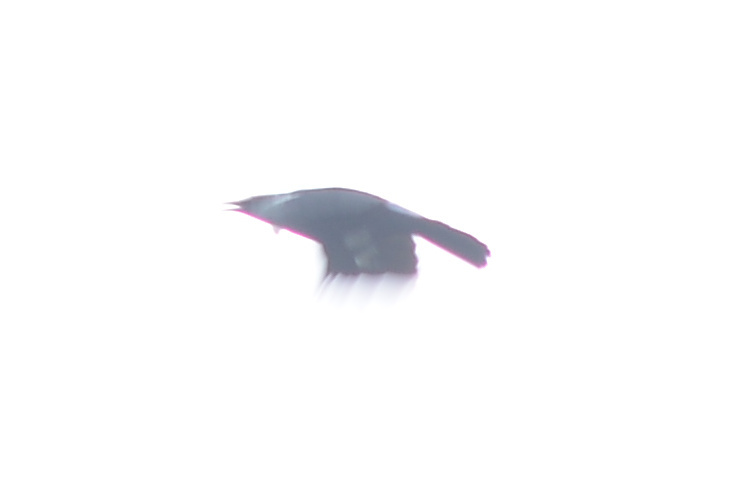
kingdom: Animalia
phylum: Chordata
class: Aves
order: Passeriformes
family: Meliphagidae
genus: Prosthemadera
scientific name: Prosthemadera novaeseelandiae
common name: Tui
